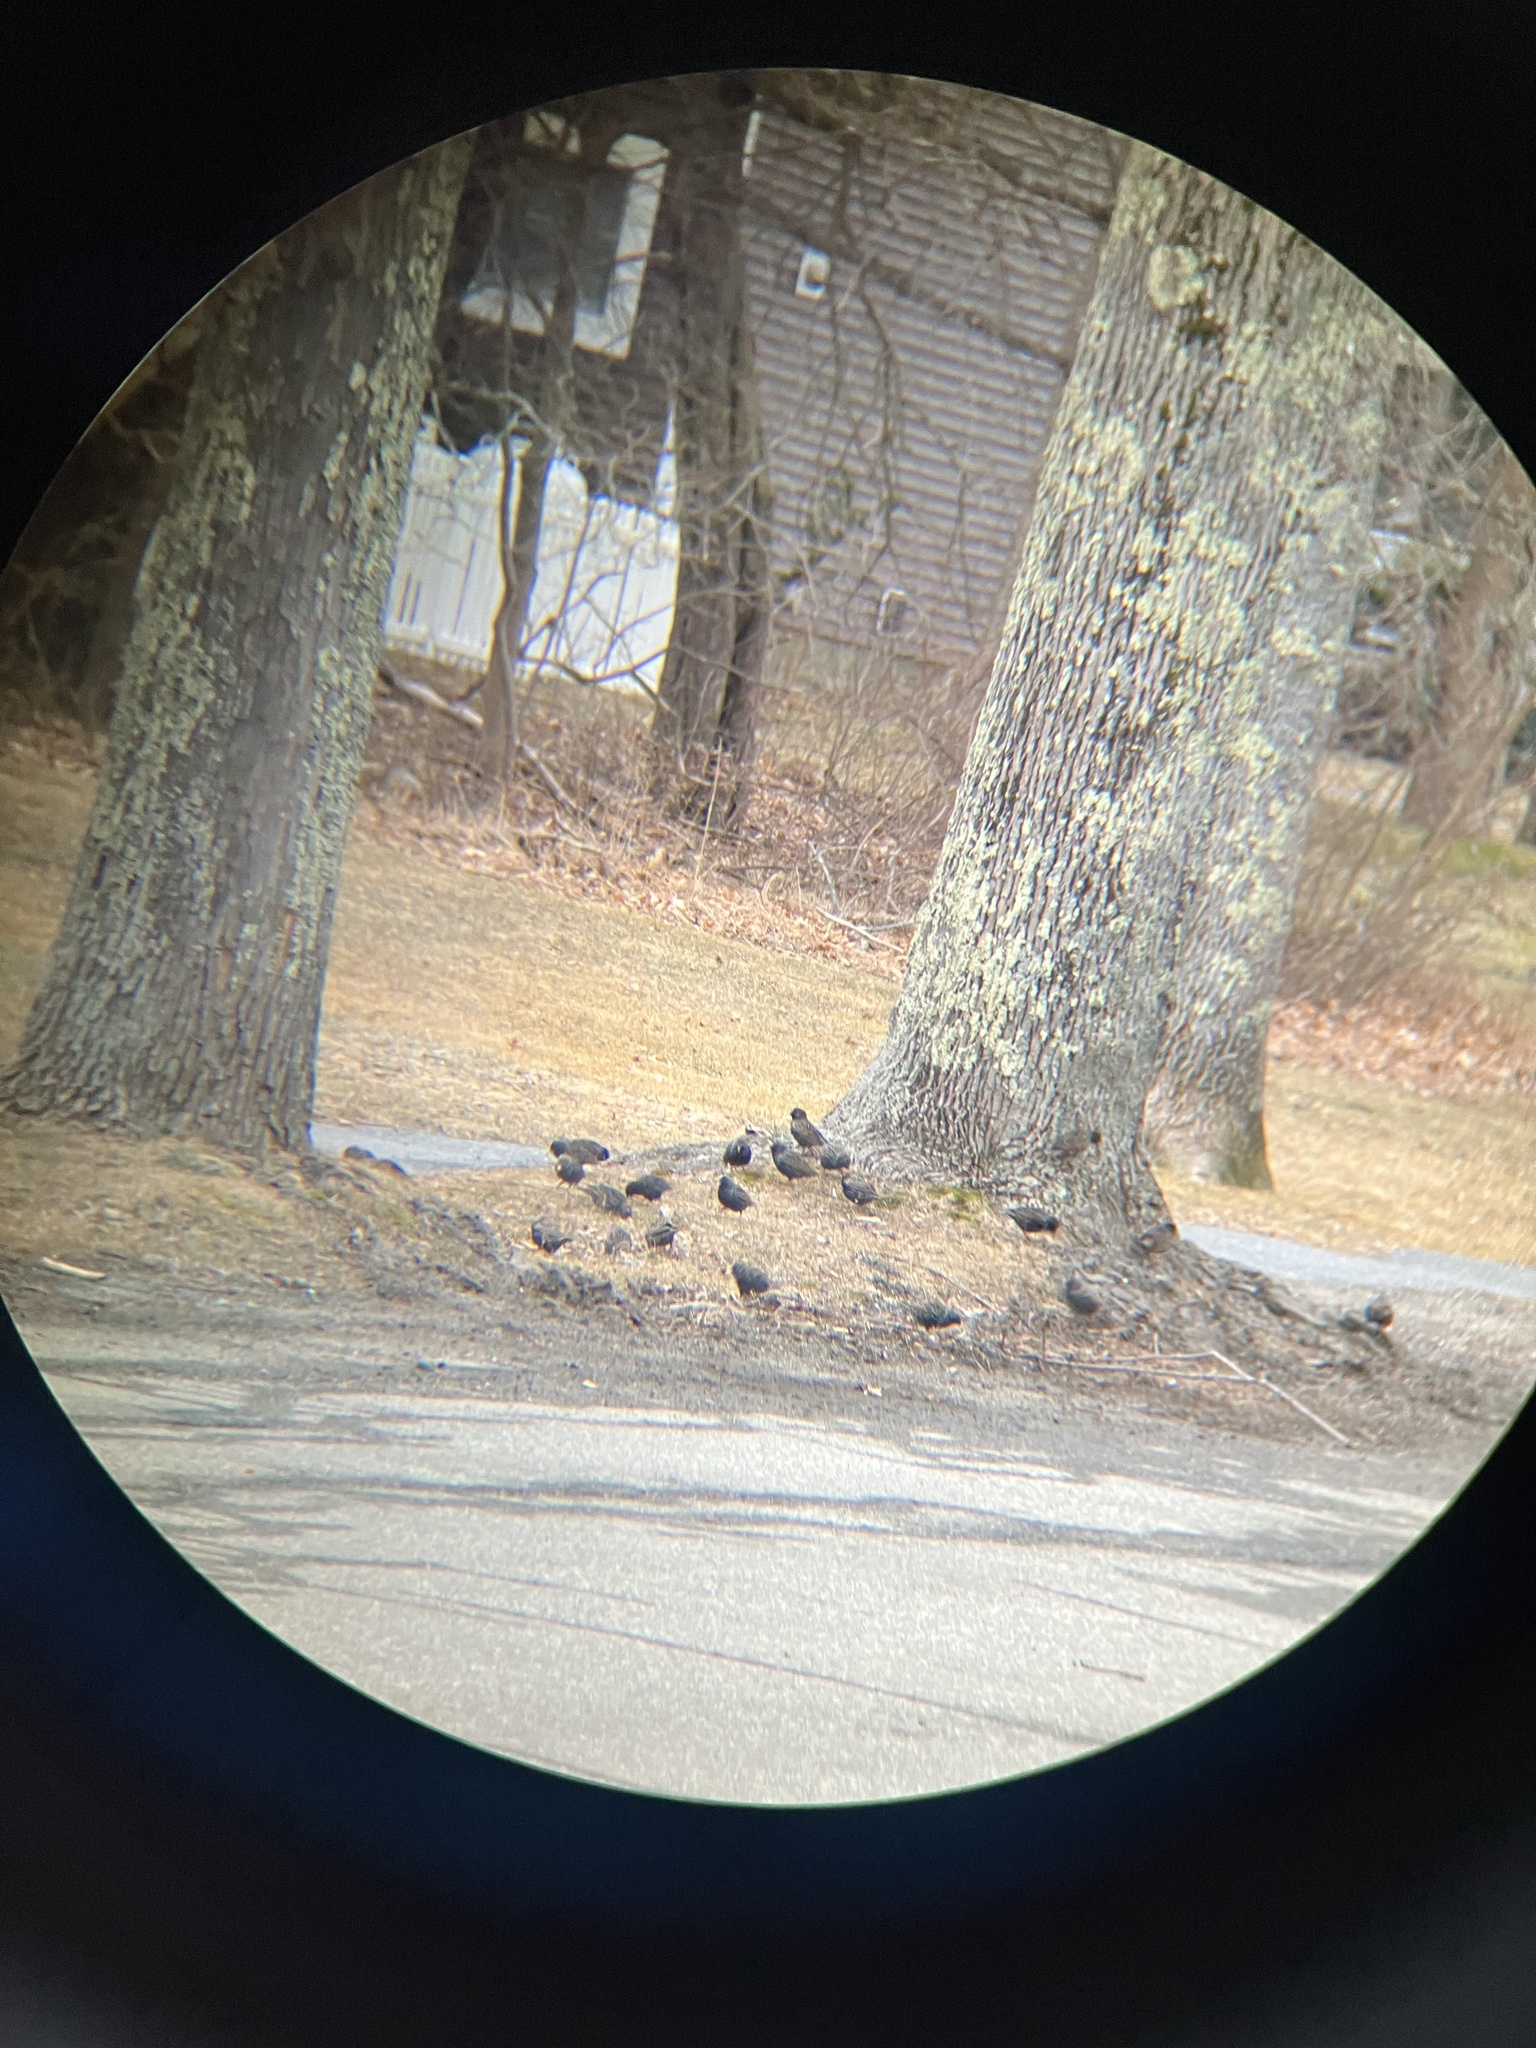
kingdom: Animalia
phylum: Chordata
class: Aves
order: Passeriformes
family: Sturnidae
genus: Sturnus
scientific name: Sturnus vulgaris
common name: Common starling
